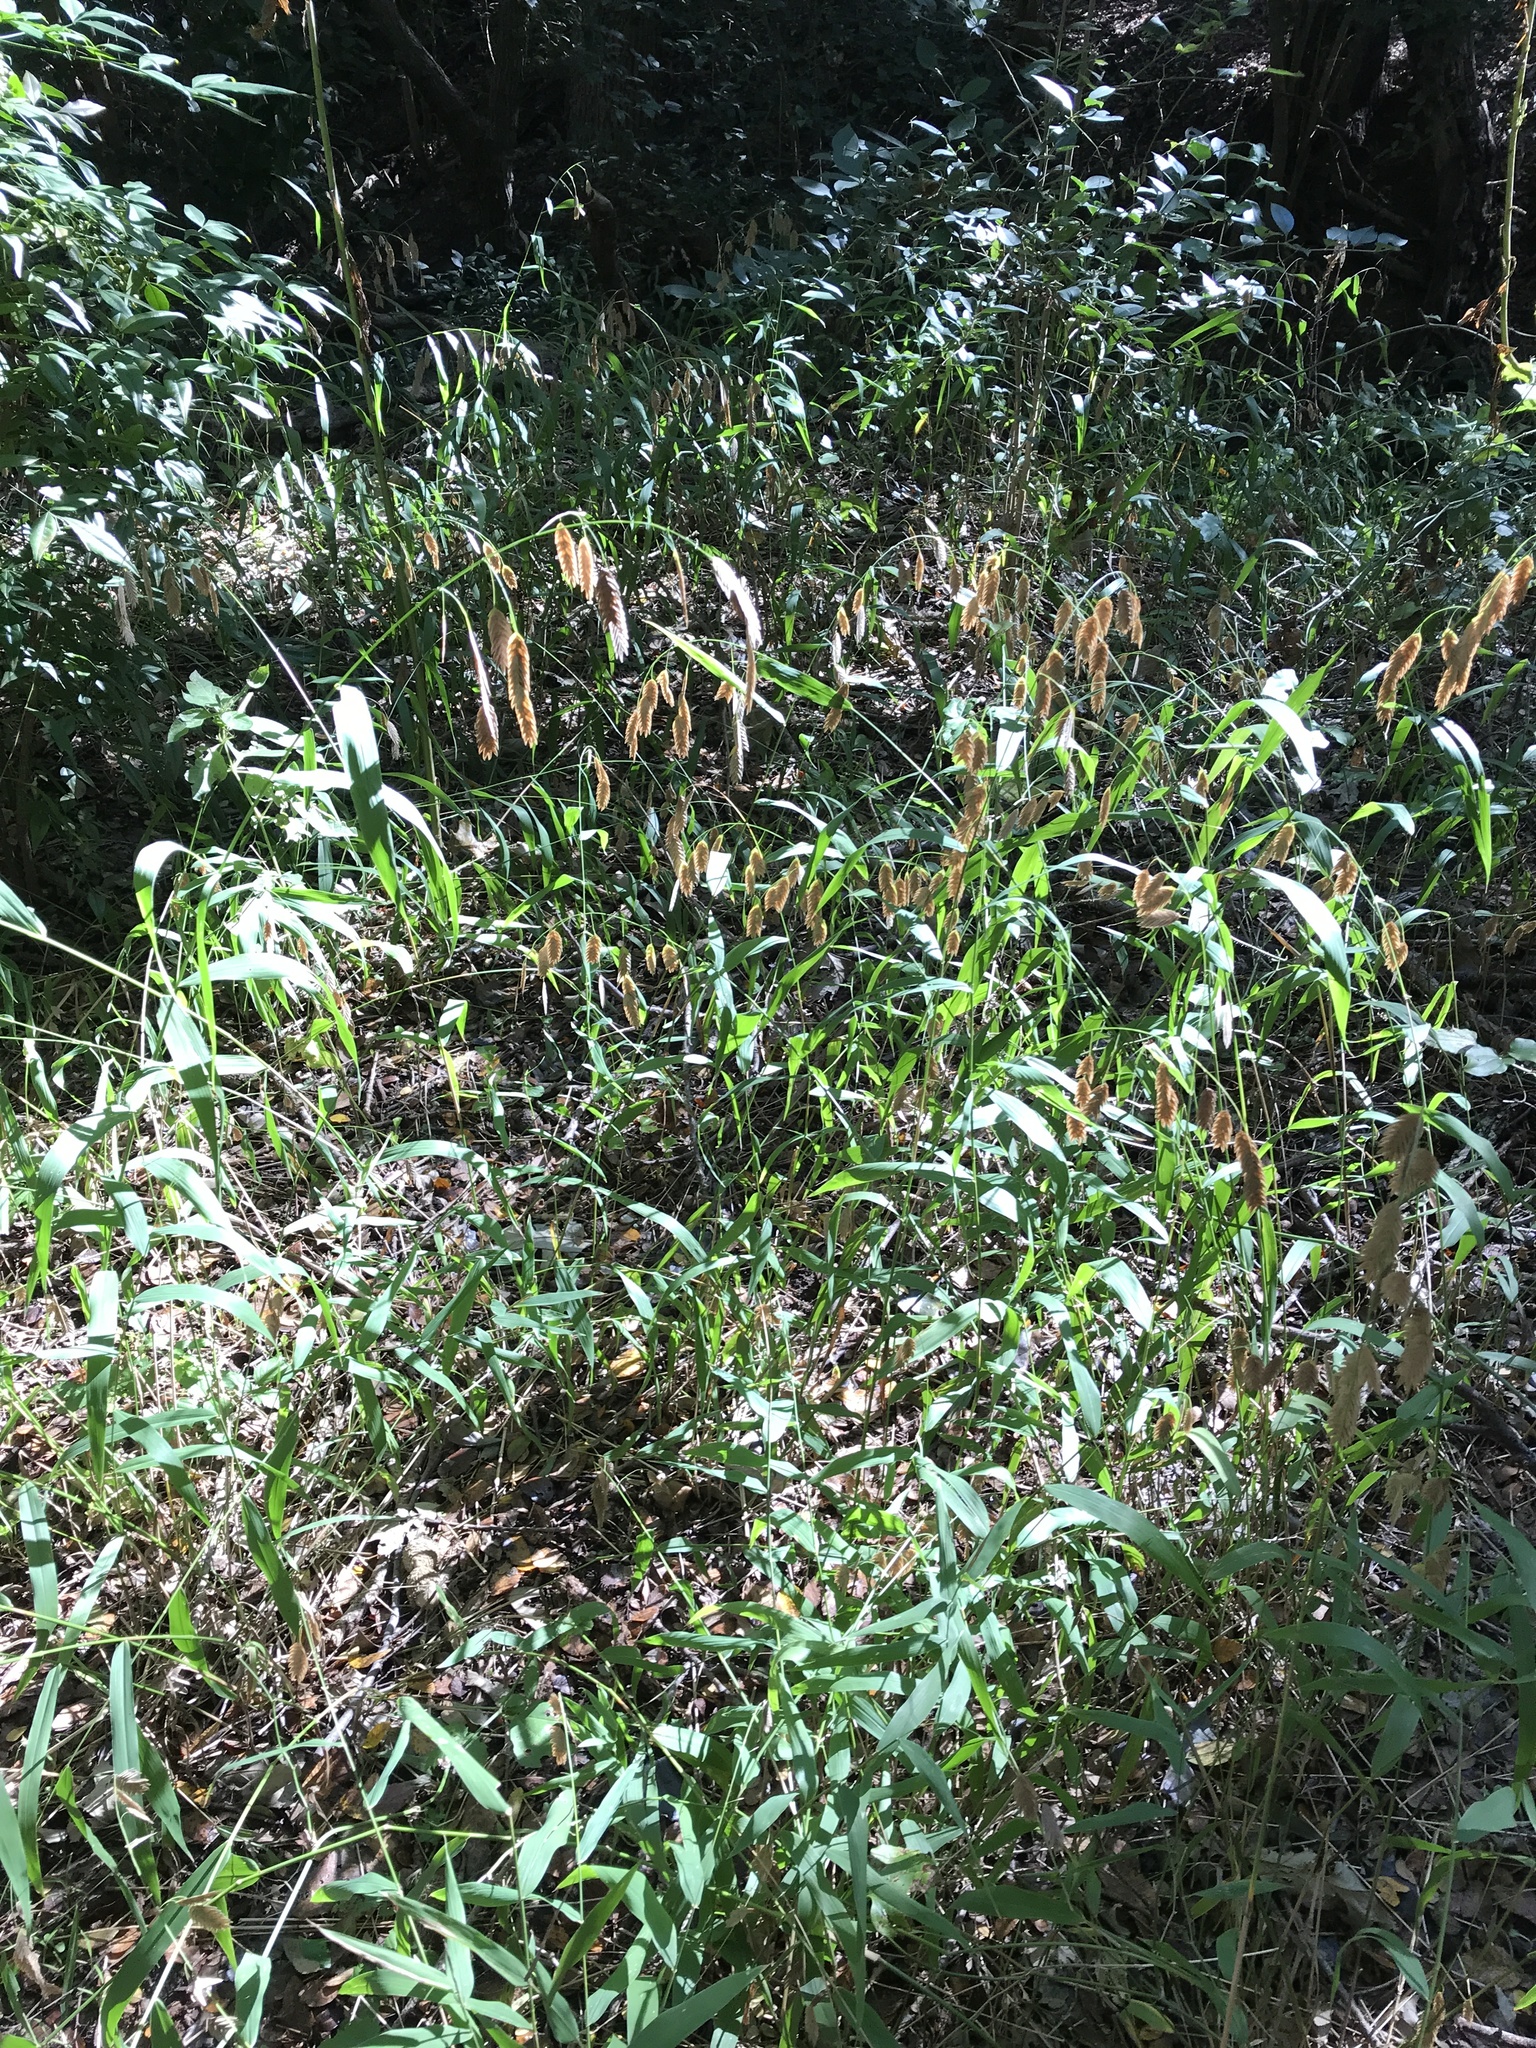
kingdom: Plantae
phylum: Tracheophyta
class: Liliopsida
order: Poales
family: Poaceae
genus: Chasmanthium
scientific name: Chasmanthium latifolium
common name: Broad-leaved chasmanthium
